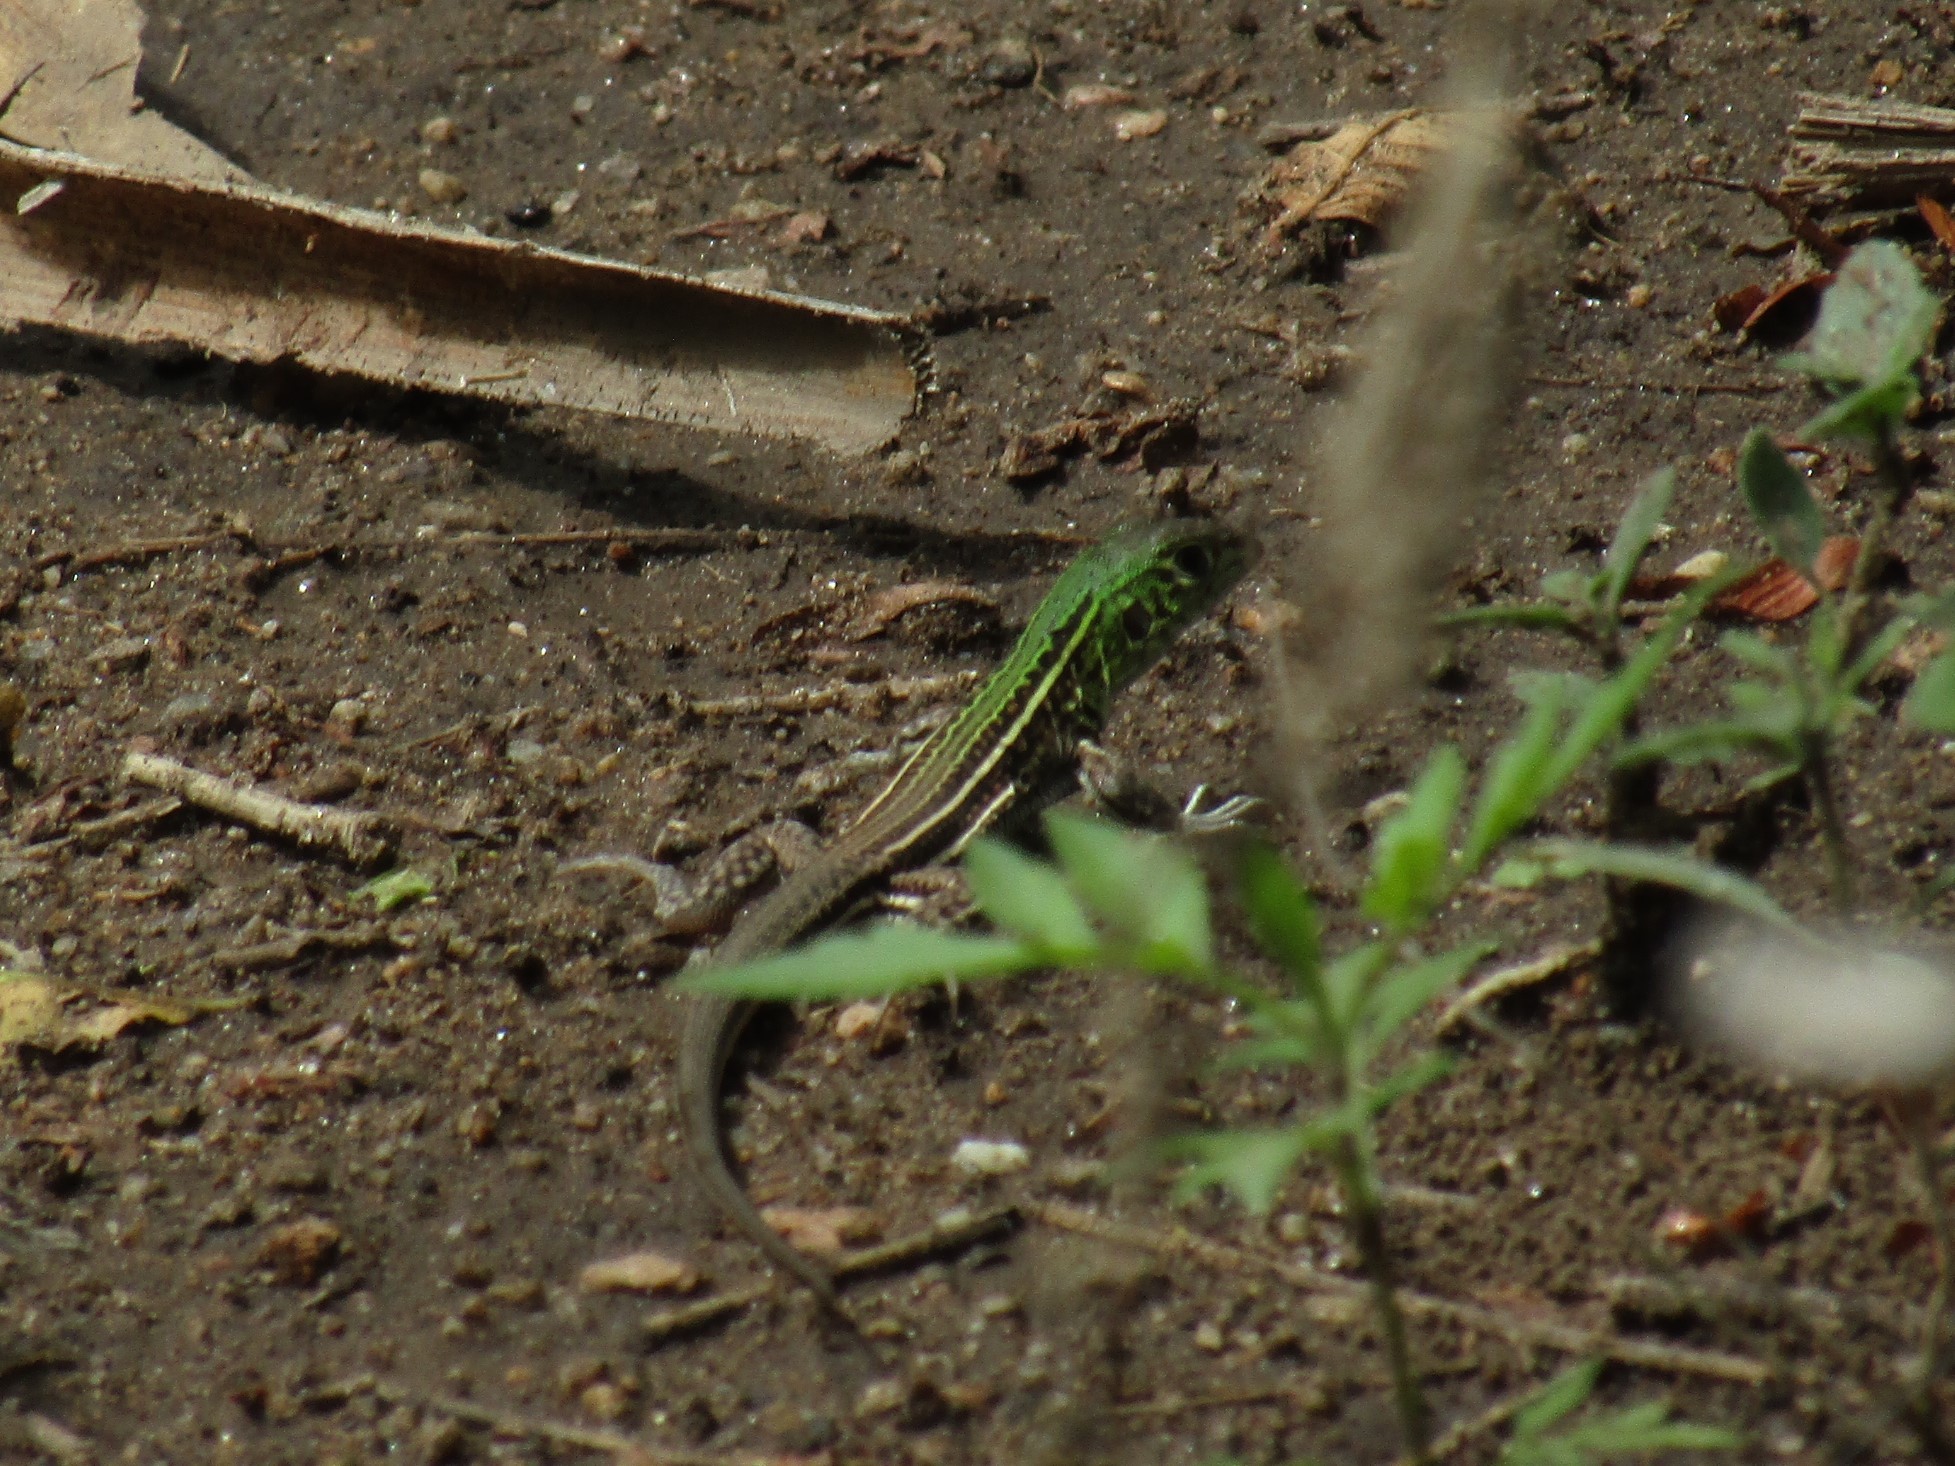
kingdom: Animalia
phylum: Chordata
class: Squamata
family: Teiidae
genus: Teius
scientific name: Teius teyou
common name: Four-toed tegu
